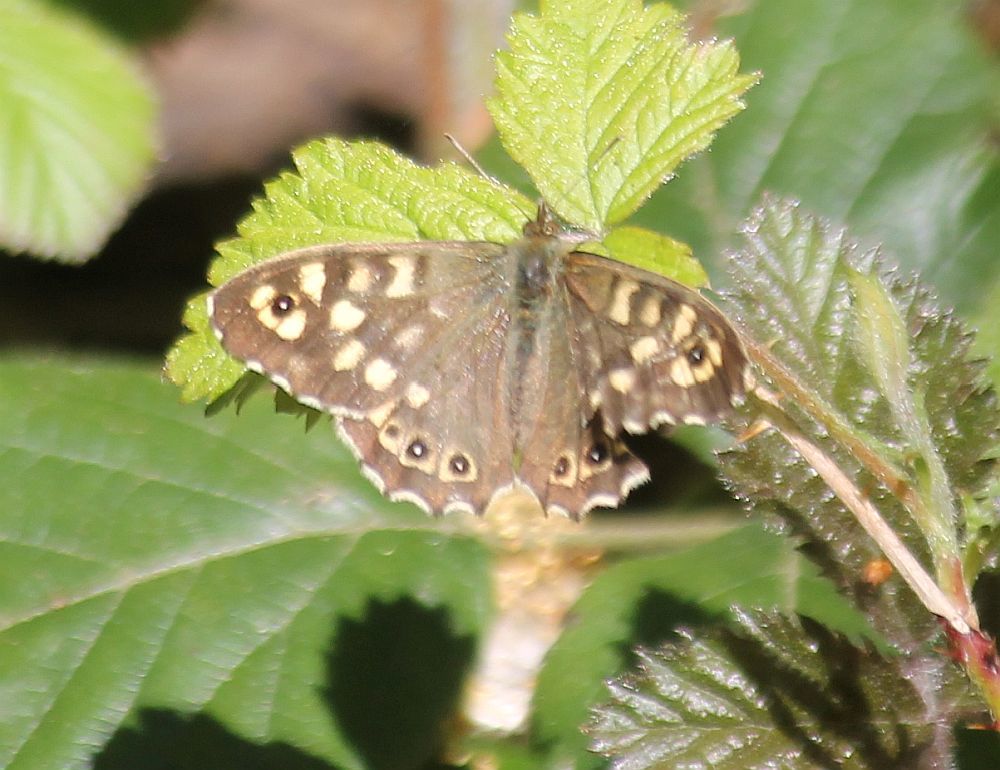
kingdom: Animalia
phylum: Arthropoda
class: Insecta
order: Lepidoptera
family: Nymphalidae
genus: Pararge
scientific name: Pararge aegeria
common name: Speckled wood
